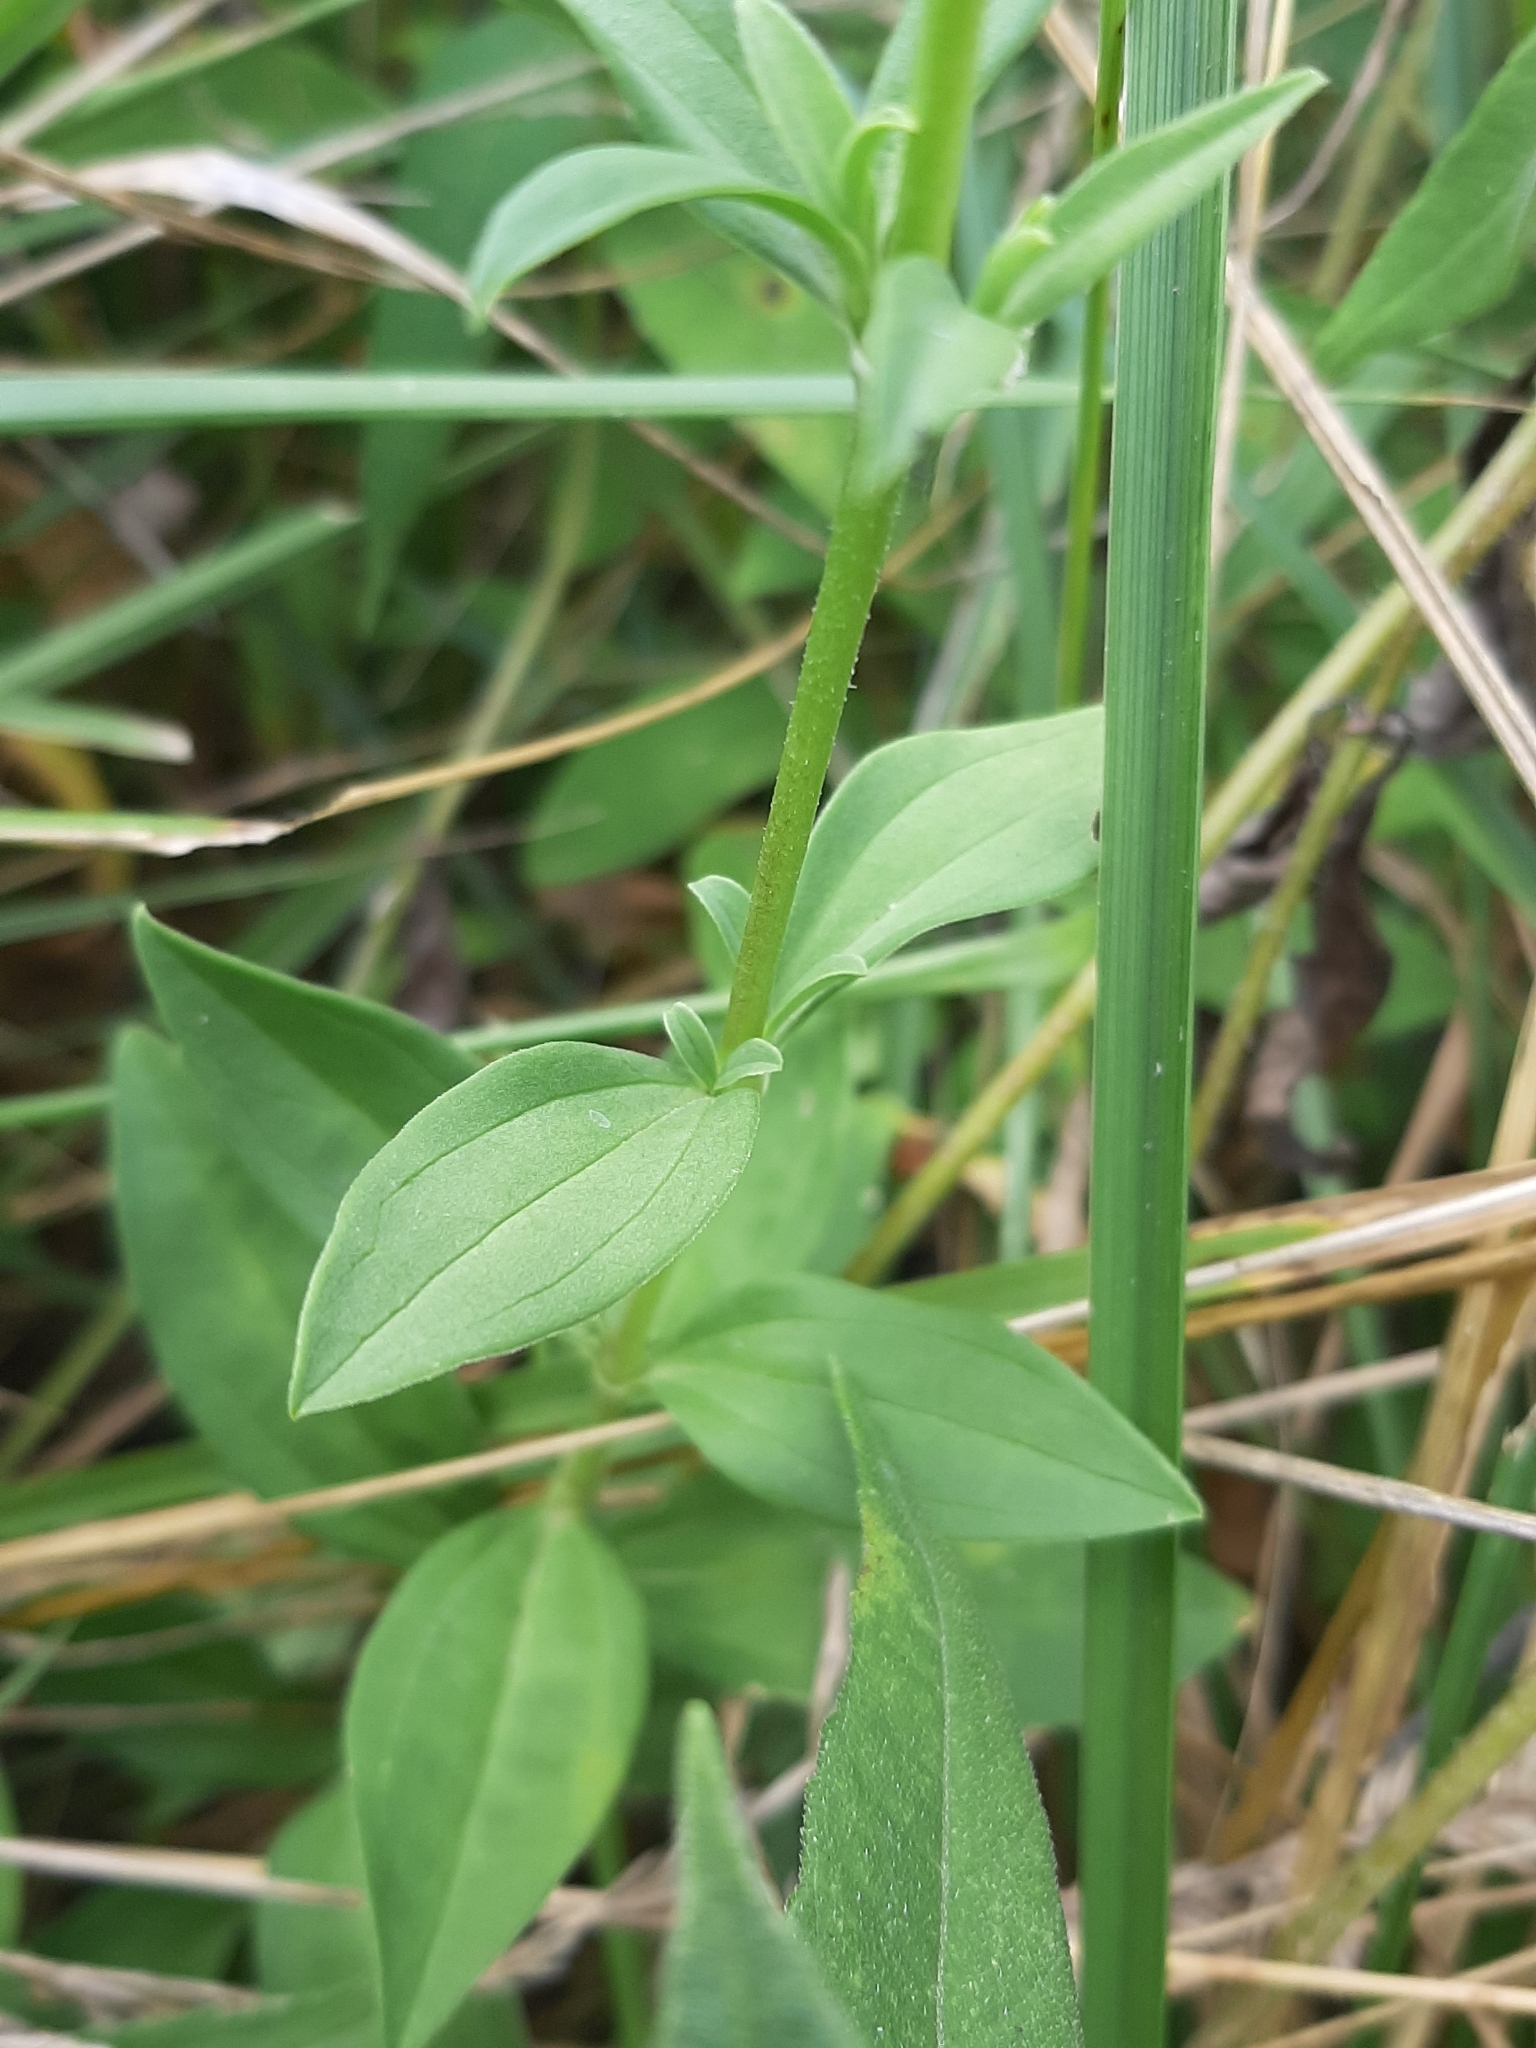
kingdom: Plantae
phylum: Tracheophyta
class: Magnoliopsida
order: Caryophyllales
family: Caryophyllaceae
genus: Saponaria
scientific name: Saponaria officinalis
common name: Soapwort
